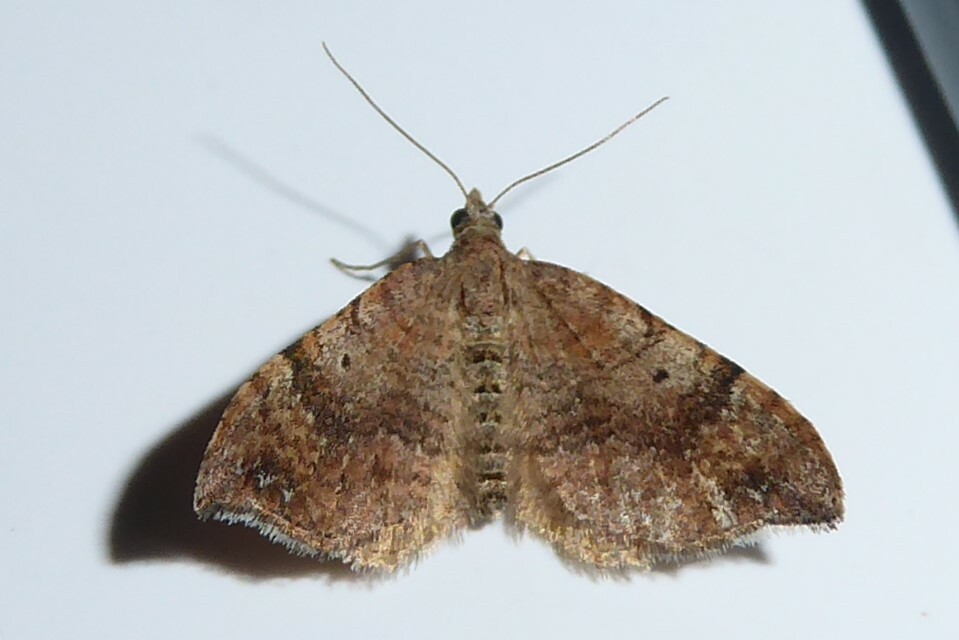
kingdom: Animalia
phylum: Arthropoda
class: Insecta
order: Lepidoptera
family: Geometridae
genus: Homodotis
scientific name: Homodotis megaspilata
